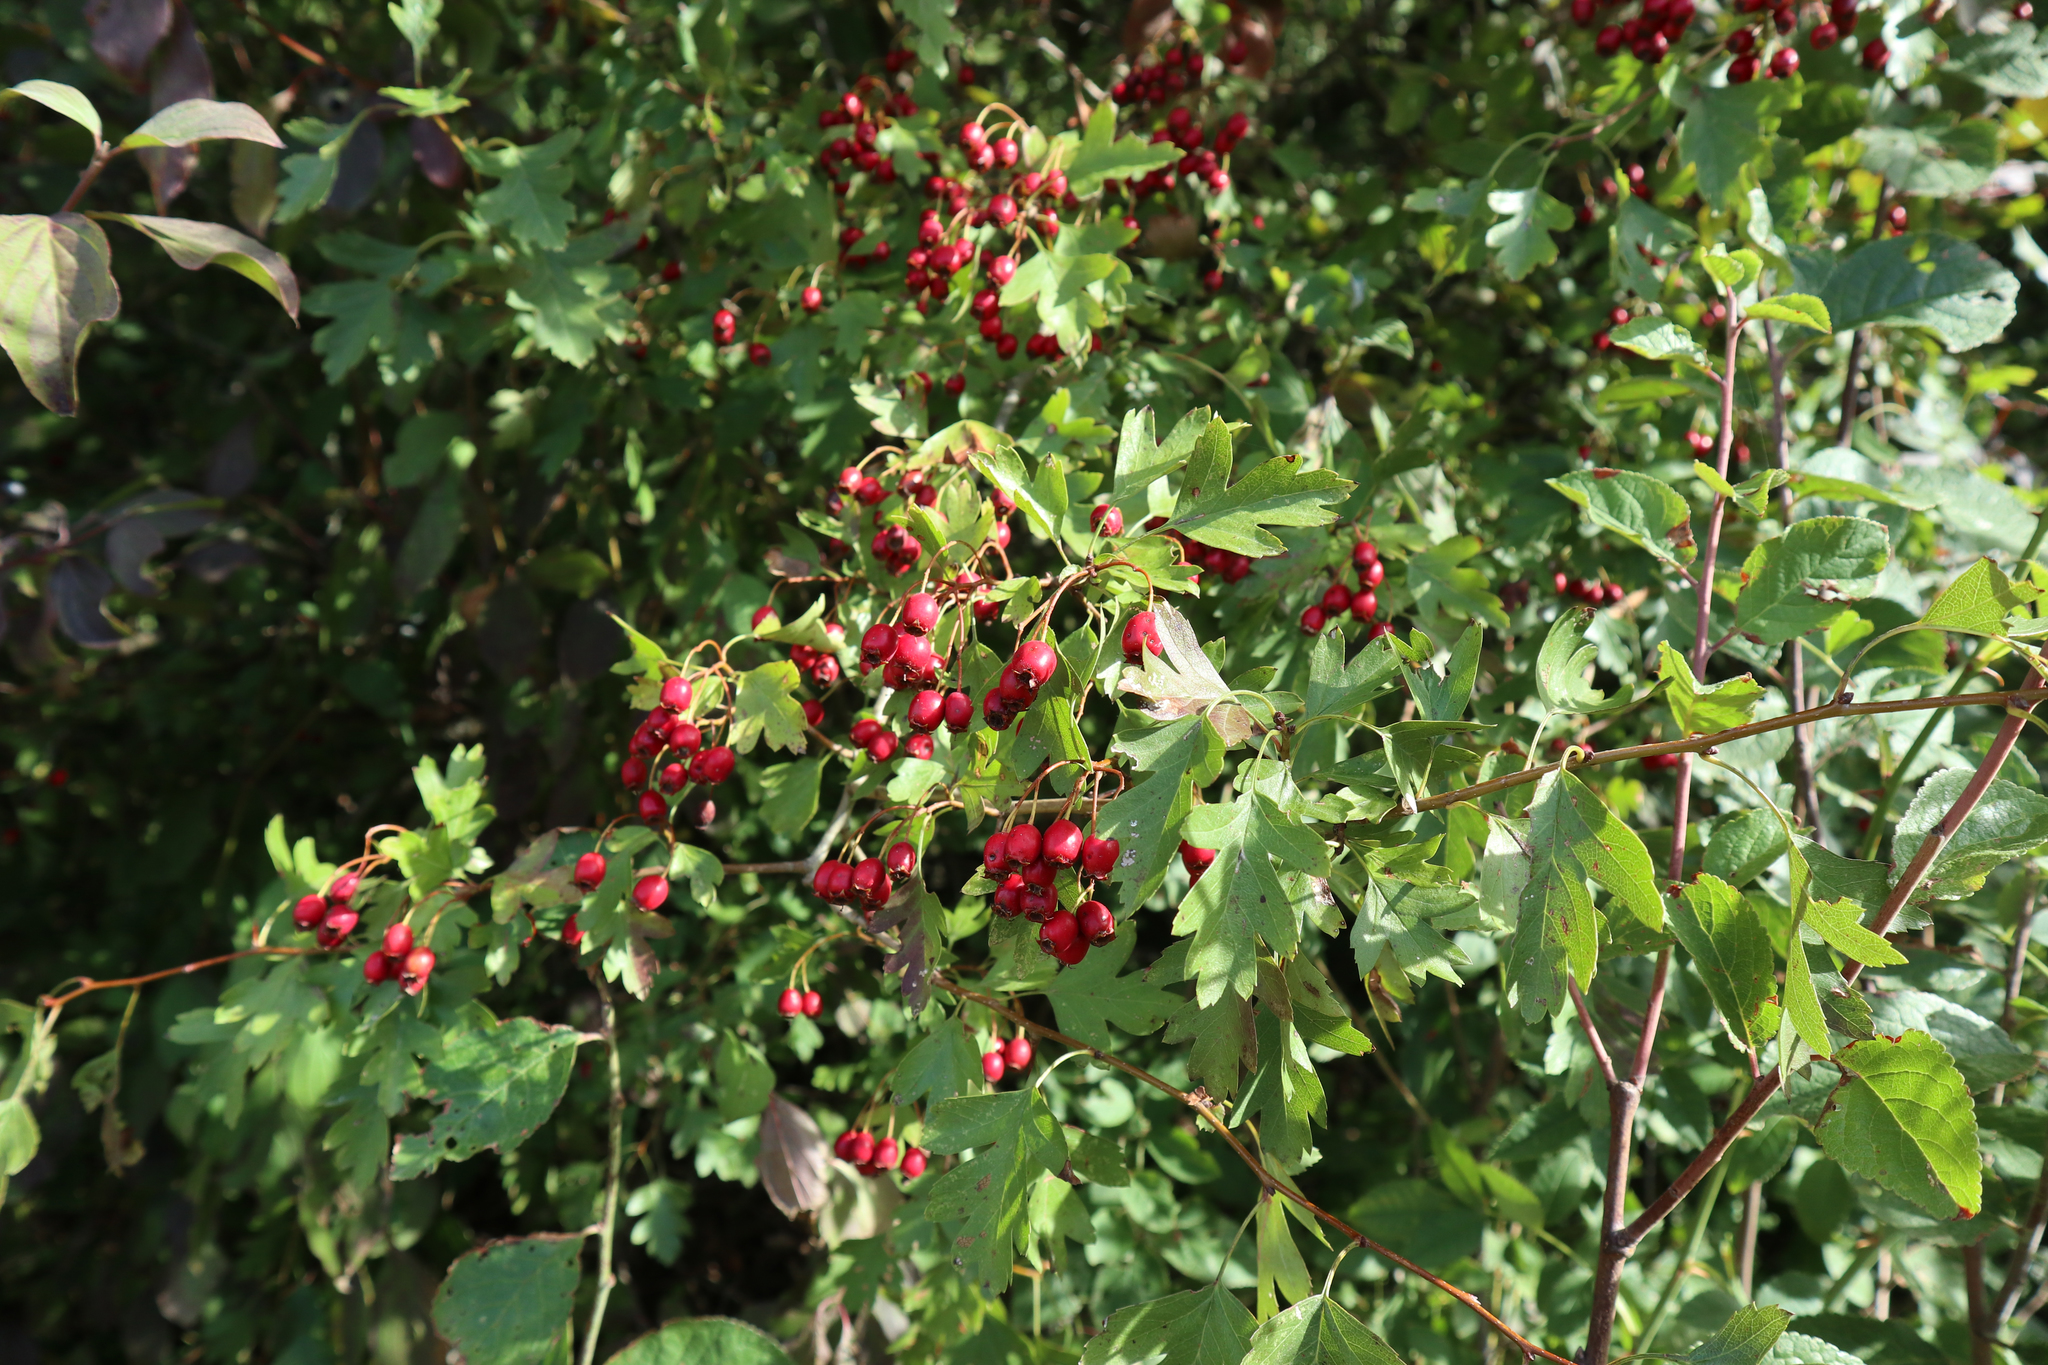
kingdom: Plantae
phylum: Tracheophyta
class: Magnoliopsida
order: Rosales
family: Rosaceae
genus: Crataegus
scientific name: Crataegus monogyna
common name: Hawthorn
